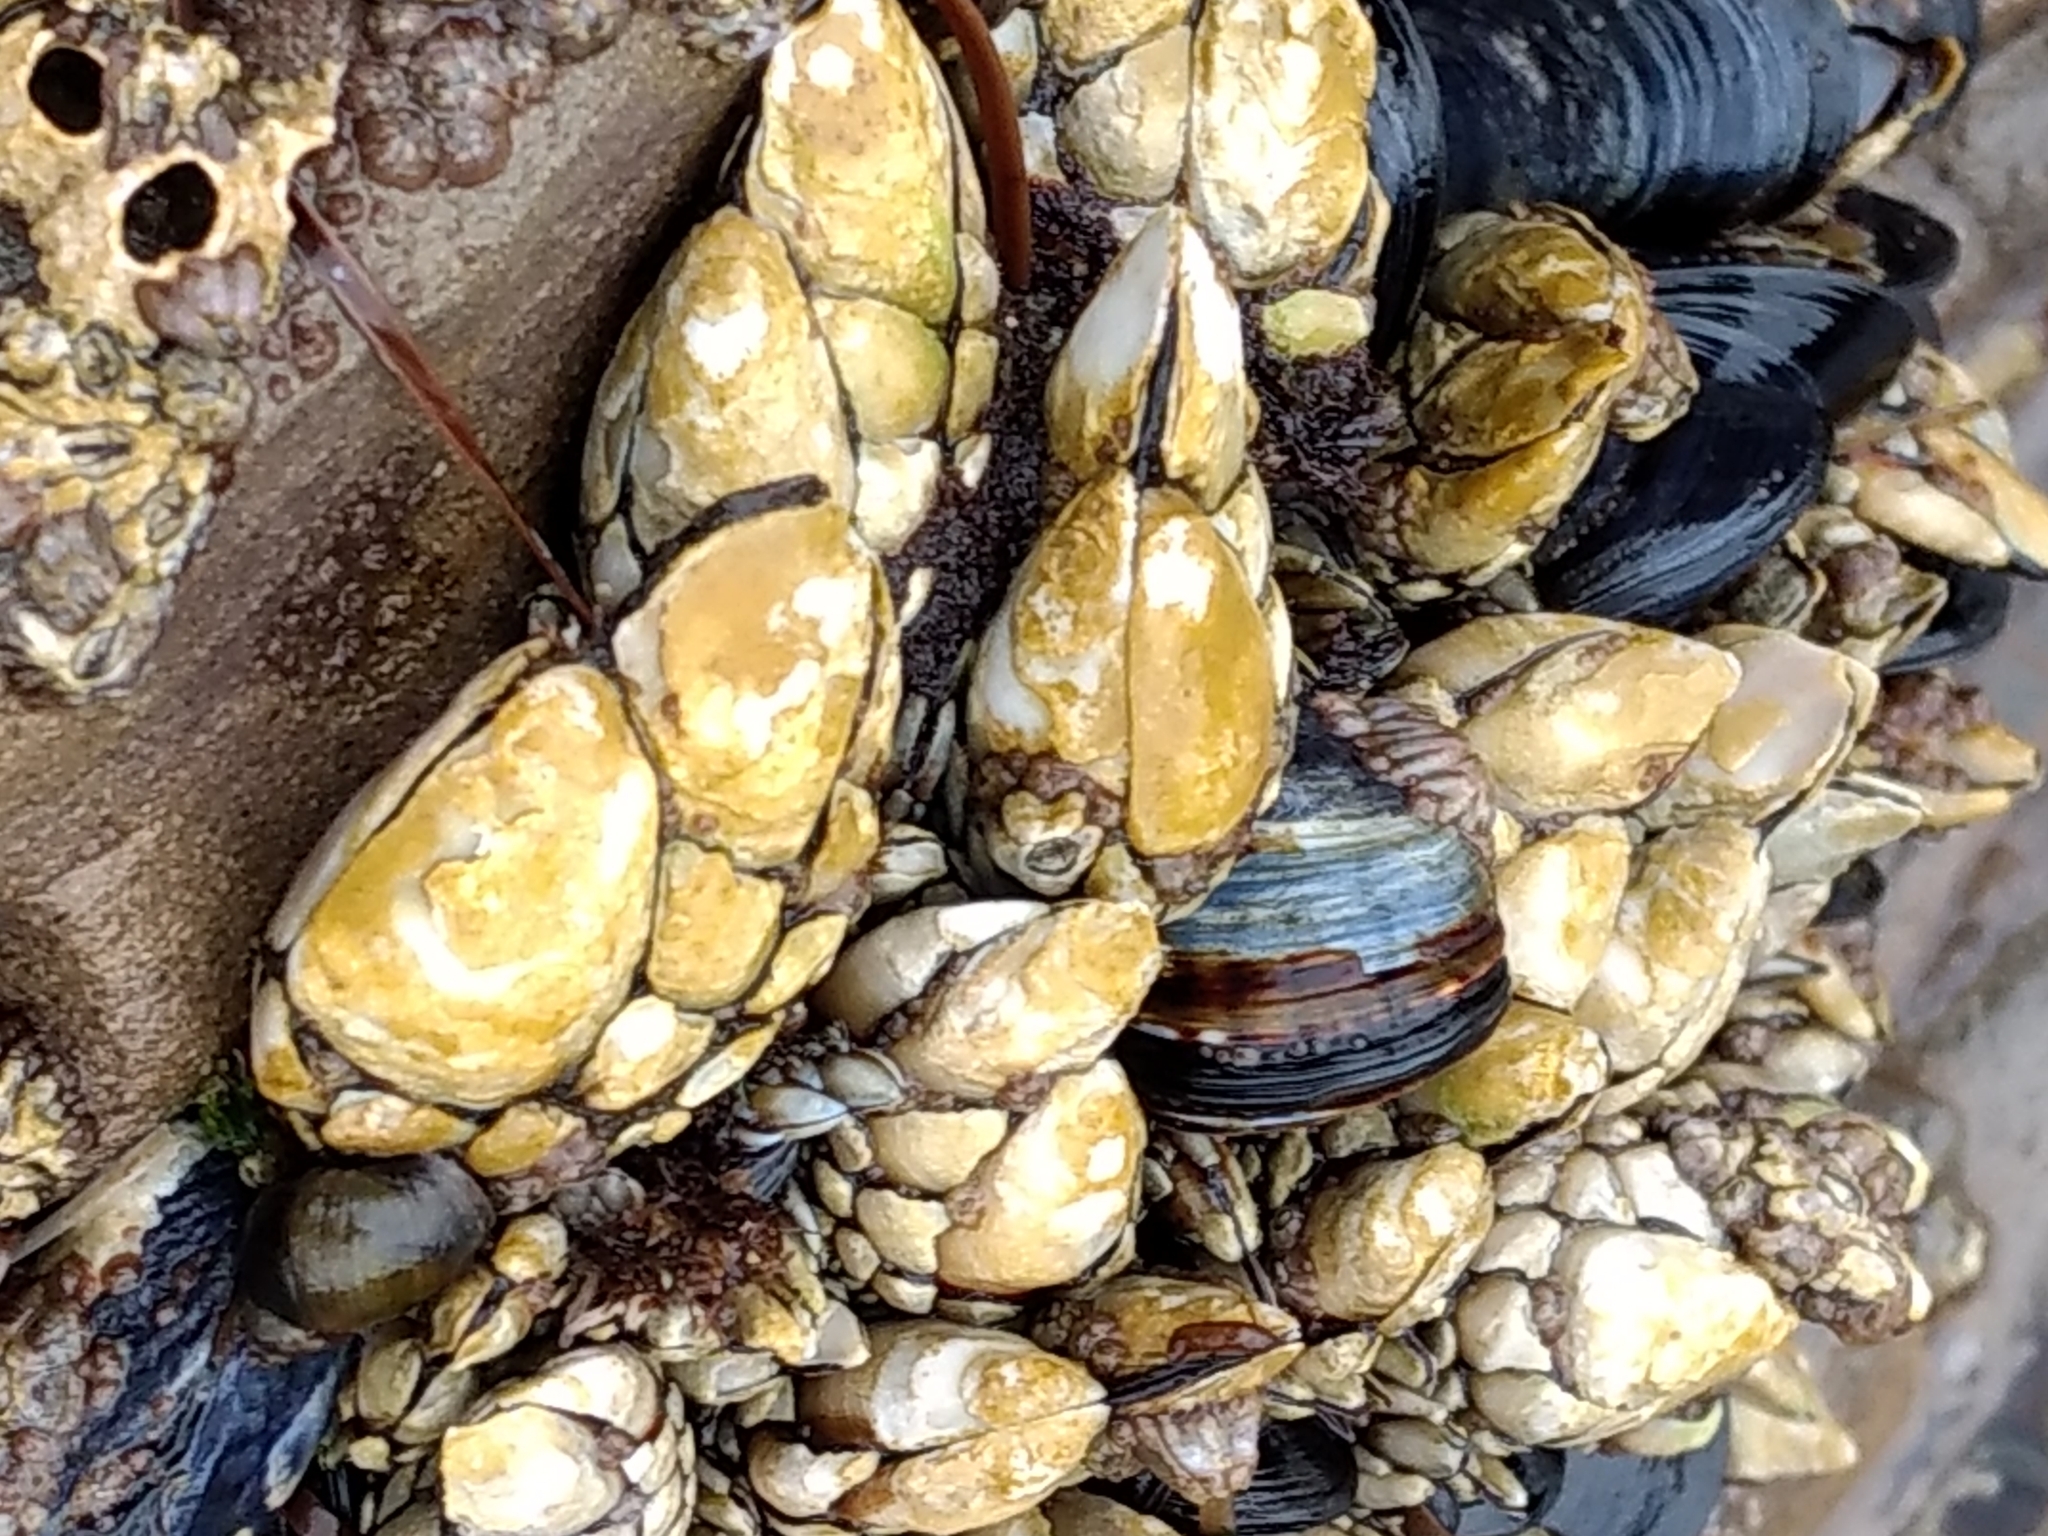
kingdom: Animalia
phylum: Arthropoda
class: Maxillopoda
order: Pedunculata
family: Pollicipedidae
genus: Pollicipes
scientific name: Pollicipes polymerus
